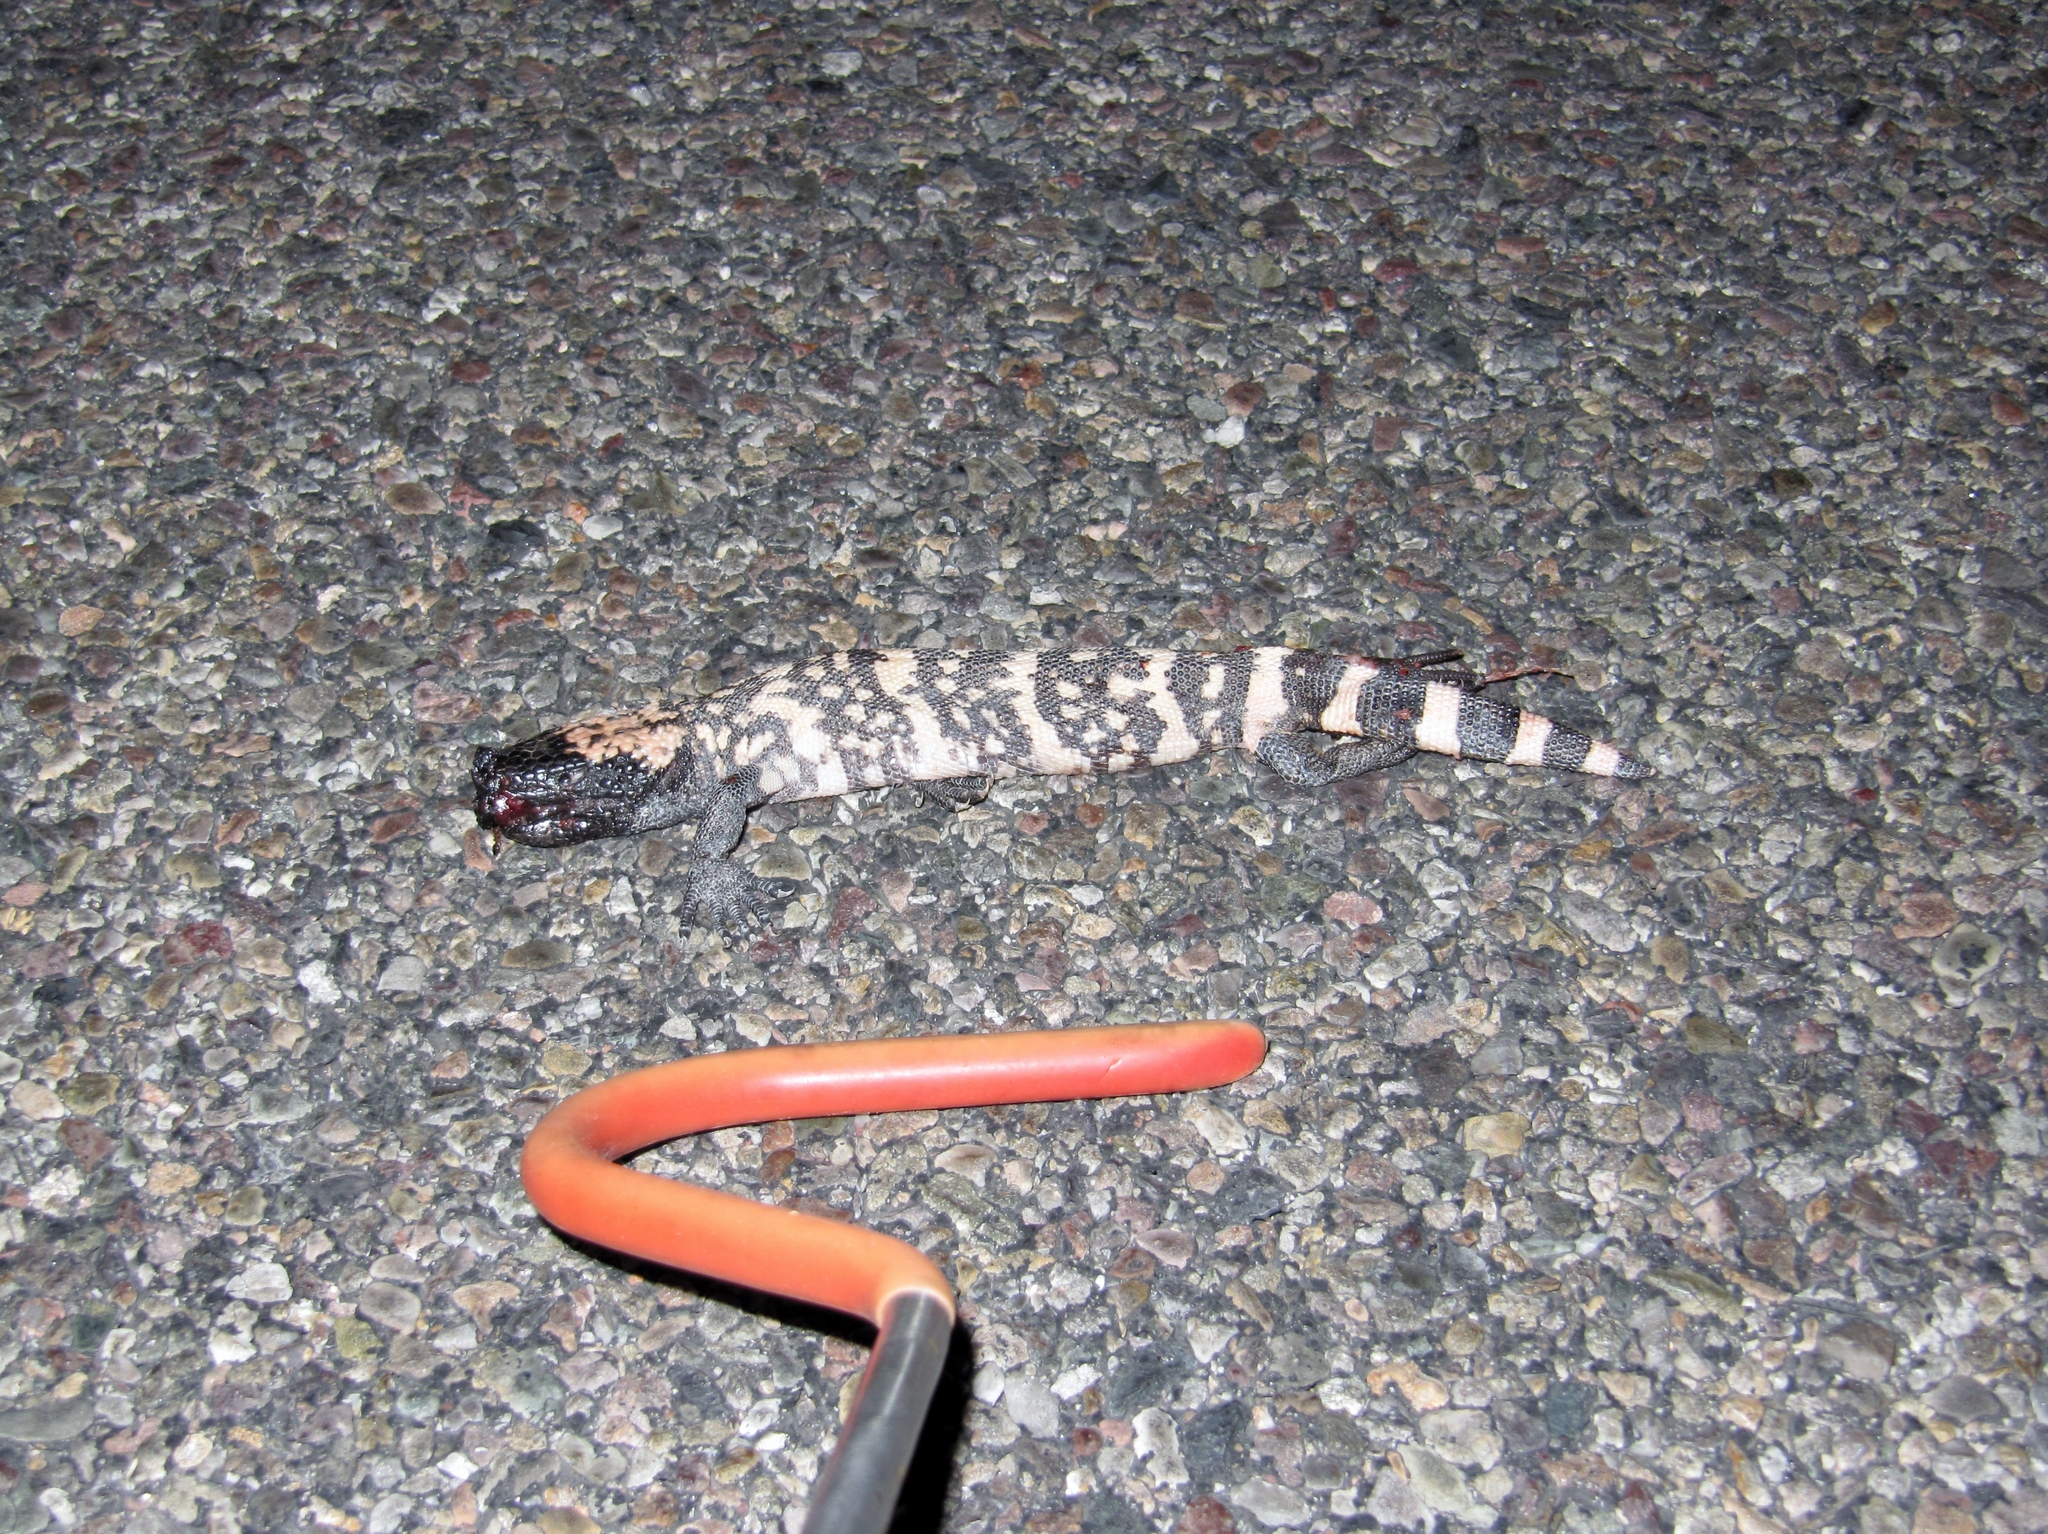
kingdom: Animalia
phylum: Chordata
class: Squamata
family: Helodermatidae
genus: Heloderma
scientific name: Heloderma suspectum
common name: Gila monster
